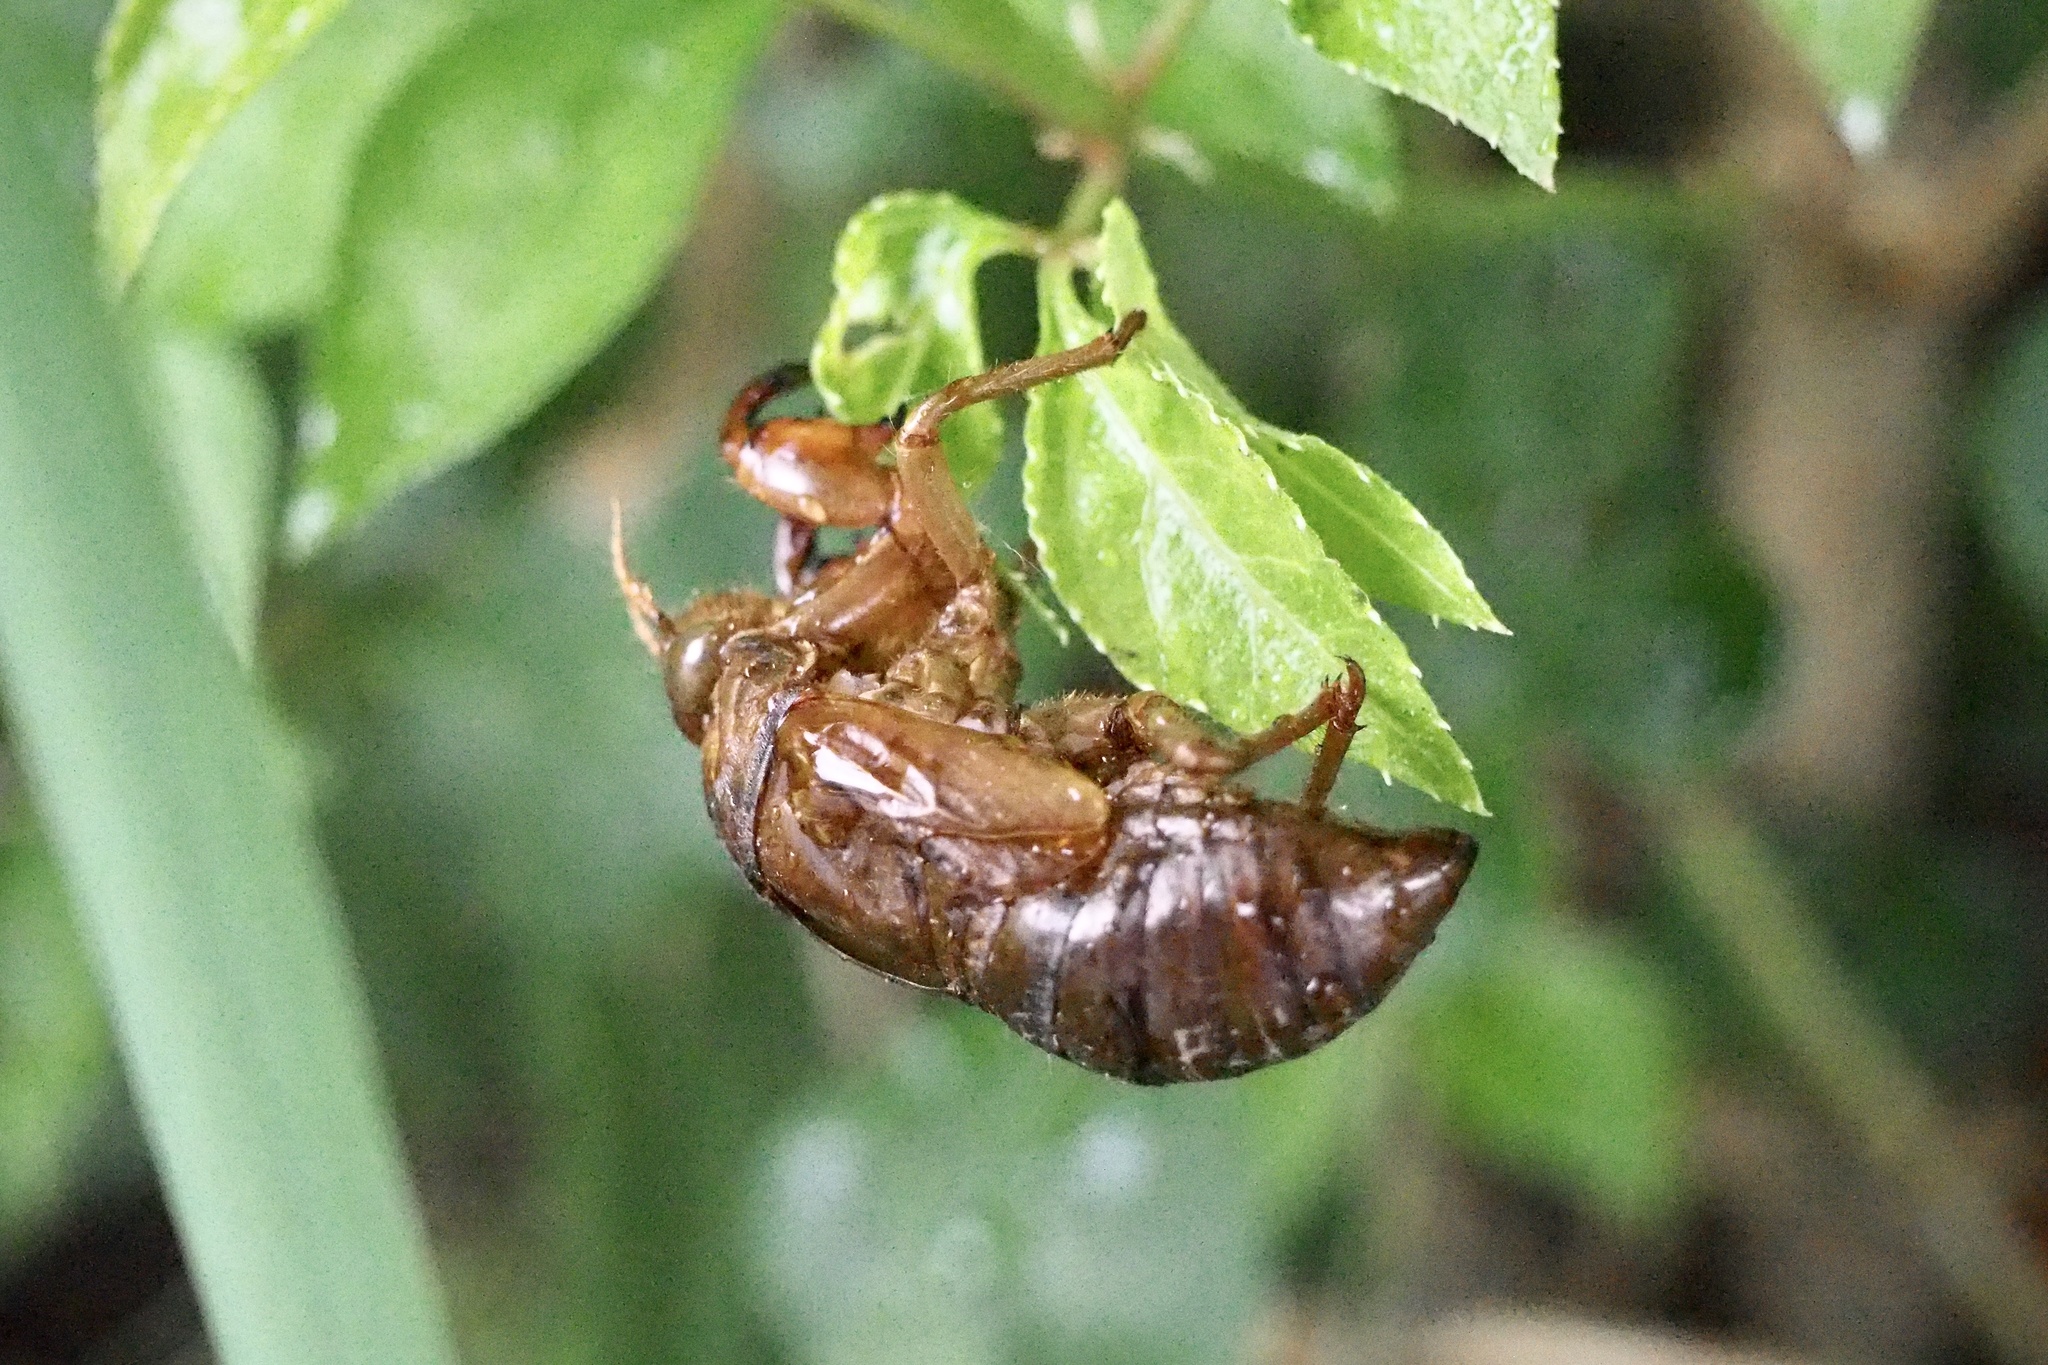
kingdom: Animalia
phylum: Arthropoda
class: Insecta
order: Hemiptera
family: Cicadidae
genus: Graptopsaltria
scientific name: Graptopsaltria nigrofuscata
